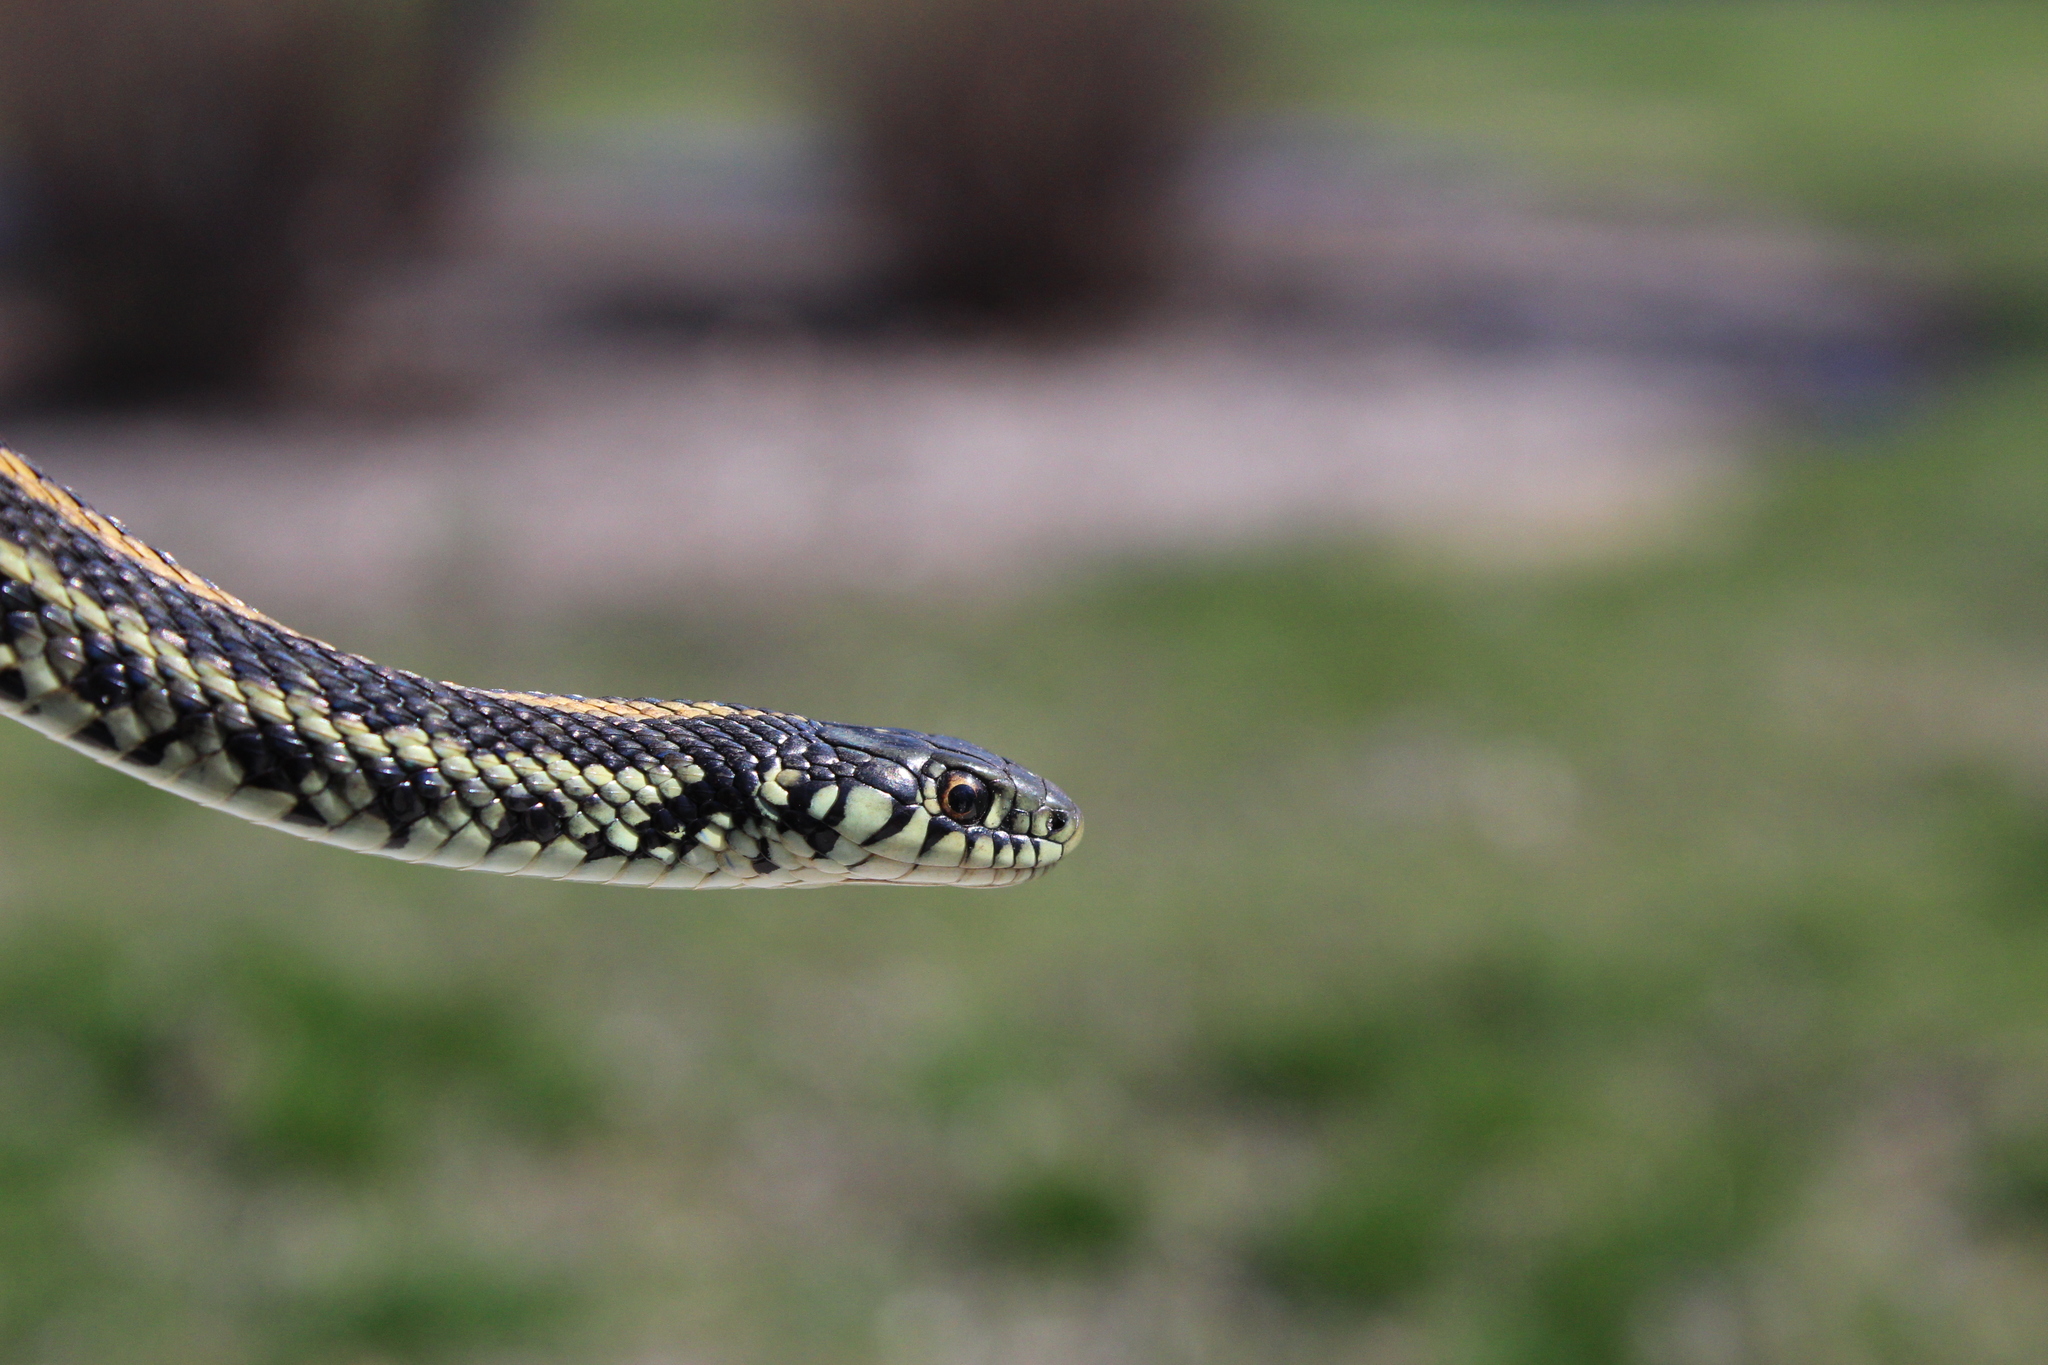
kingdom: Animalia
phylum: Chordata
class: Squamata
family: Colubridae
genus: Thamnophis
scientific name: Thamnophis radix
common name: Plains garter snake
